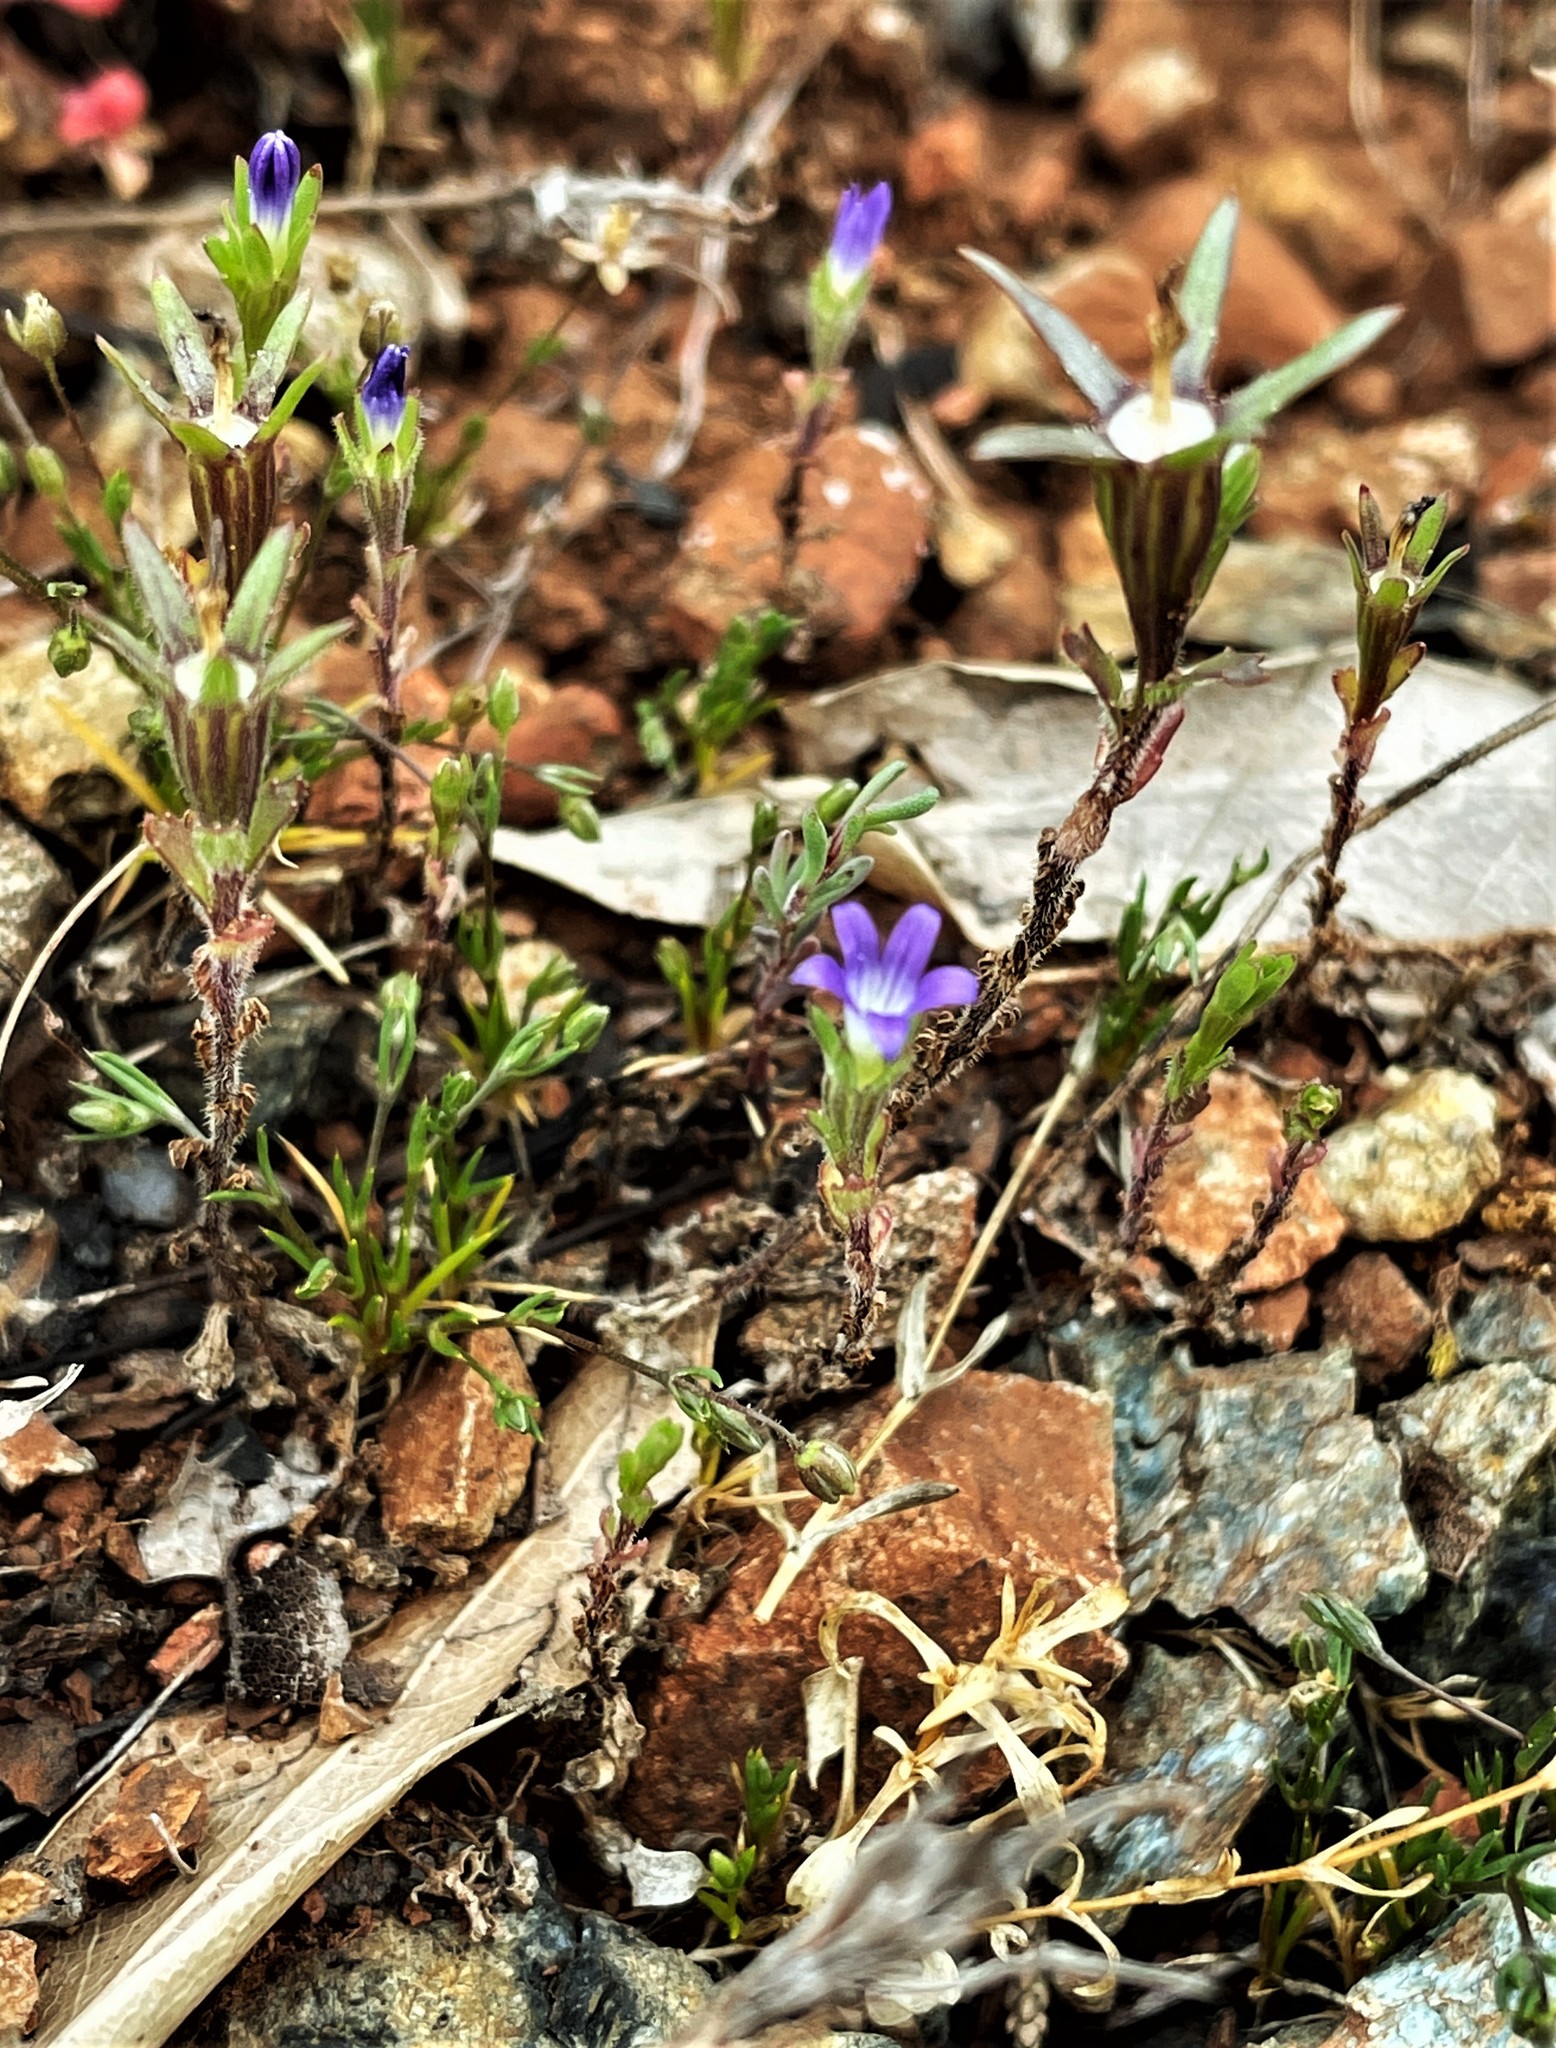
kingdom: Plantae
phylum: Tracheophyta
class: Magnoliopsida
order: Asterales
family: Campanulaceae
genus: Githopsis
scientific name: Githopsis specularioides
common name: Common bluecup
